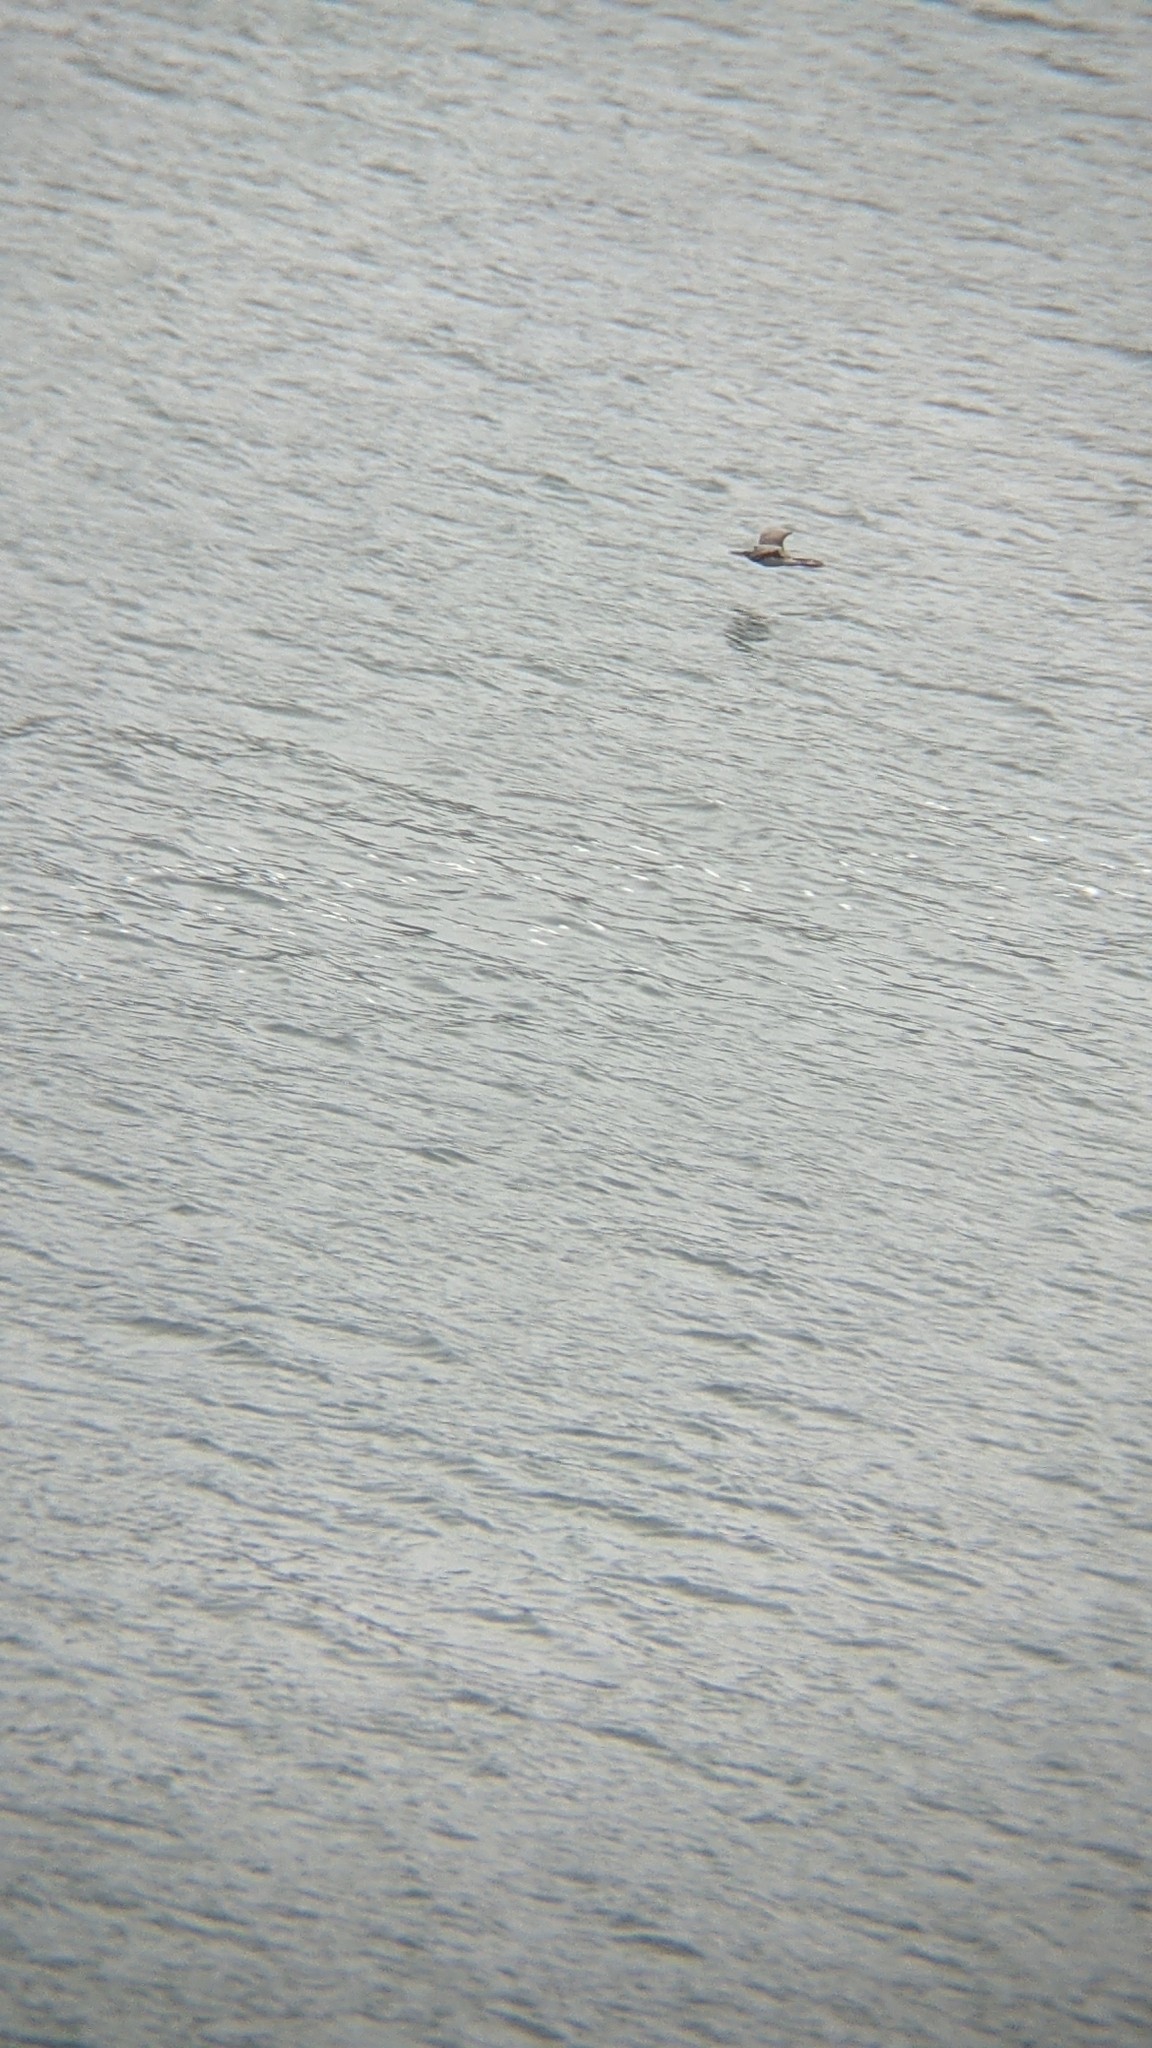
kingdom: Animalia
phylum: Chordata
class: Aves
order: Suliformes
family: Phalacrocoracidae
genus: Phalacrocorax
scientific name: Phalacrocorax punctatus
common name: Spotted shag
